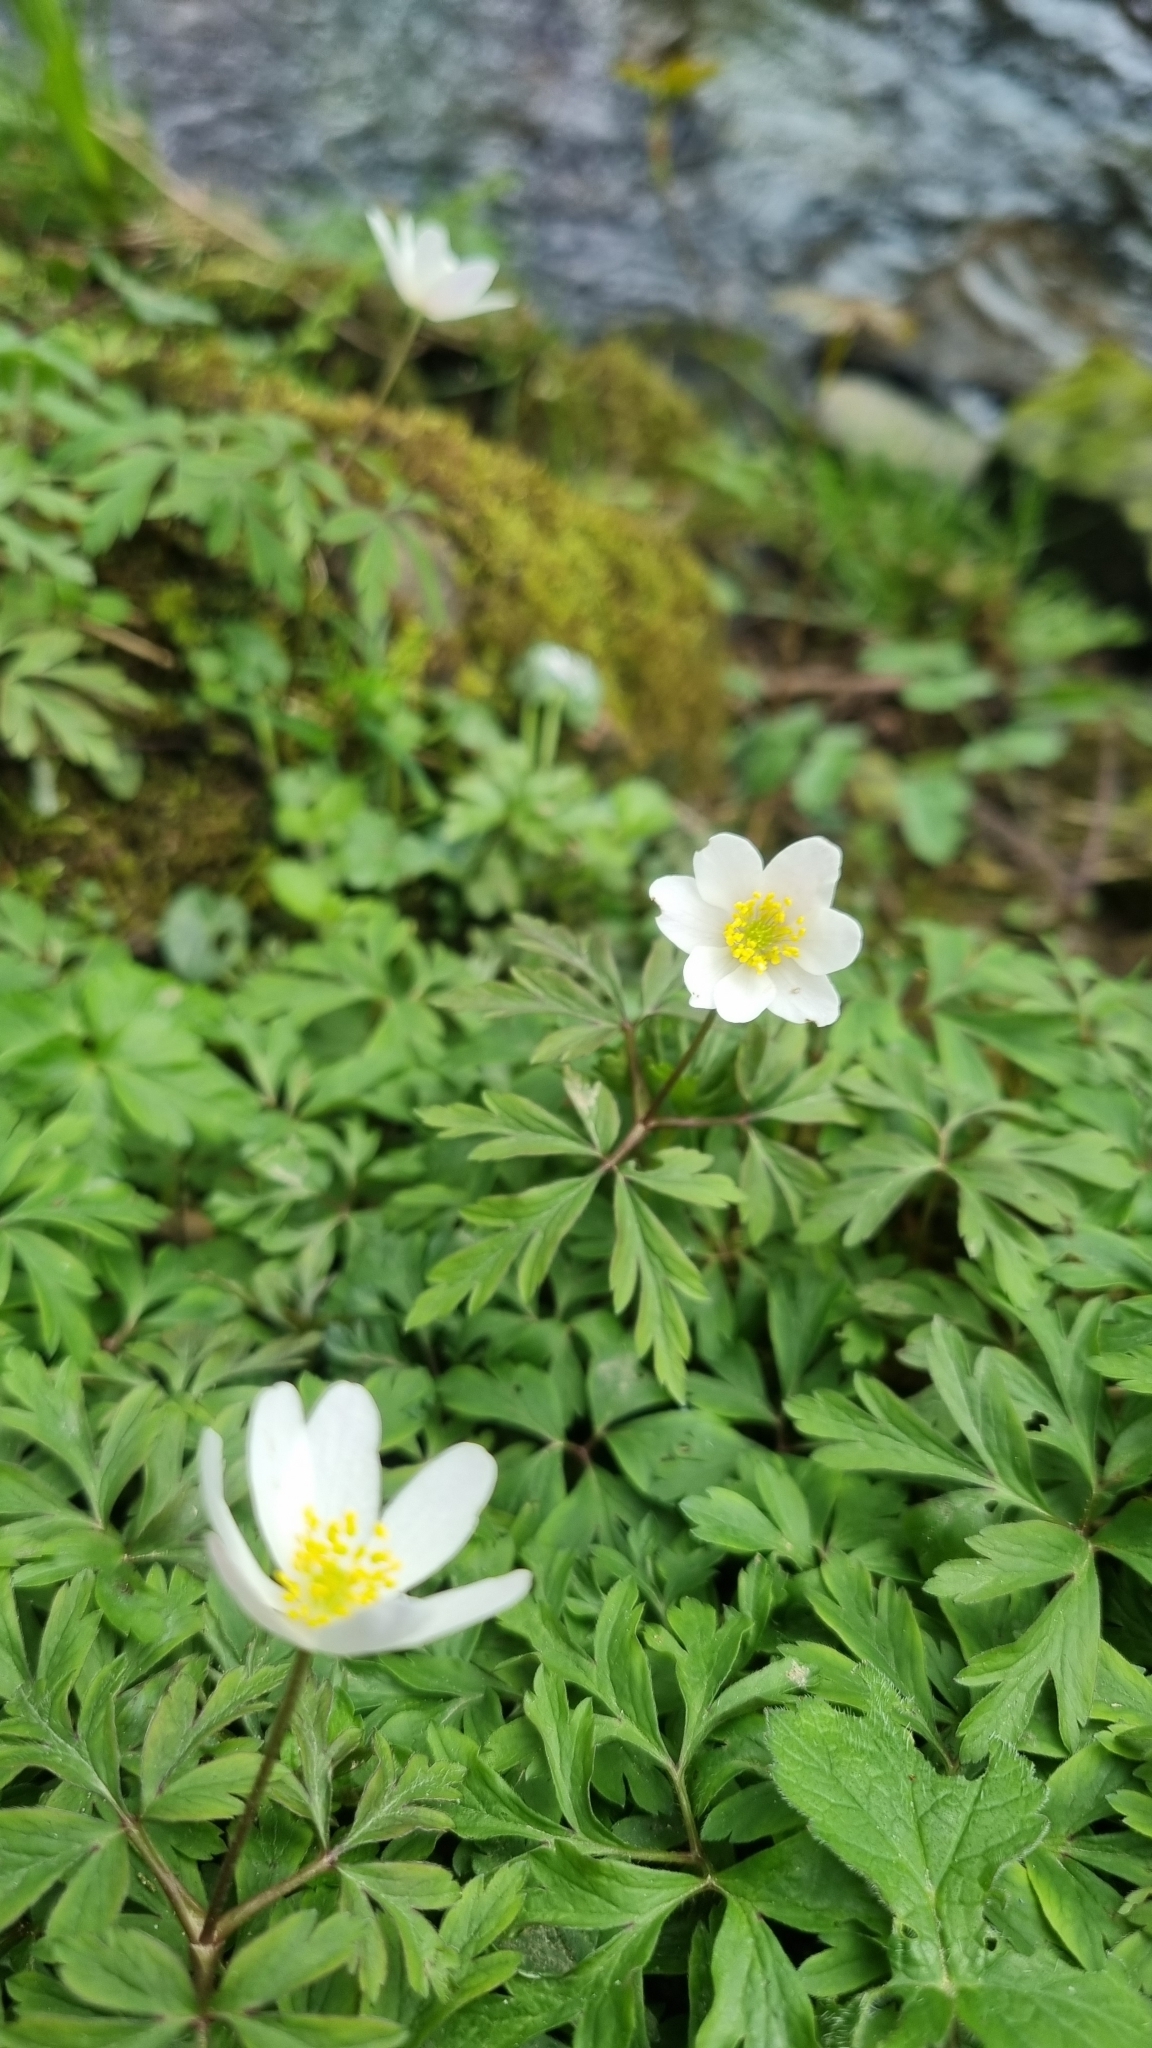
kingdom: Plantae
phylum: Tracheophyta
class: Magnoliopsida
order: Ranunculales
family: Ranunculaceae
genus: Anemone
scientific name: Anemone nemorosa
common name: Wood anemone
